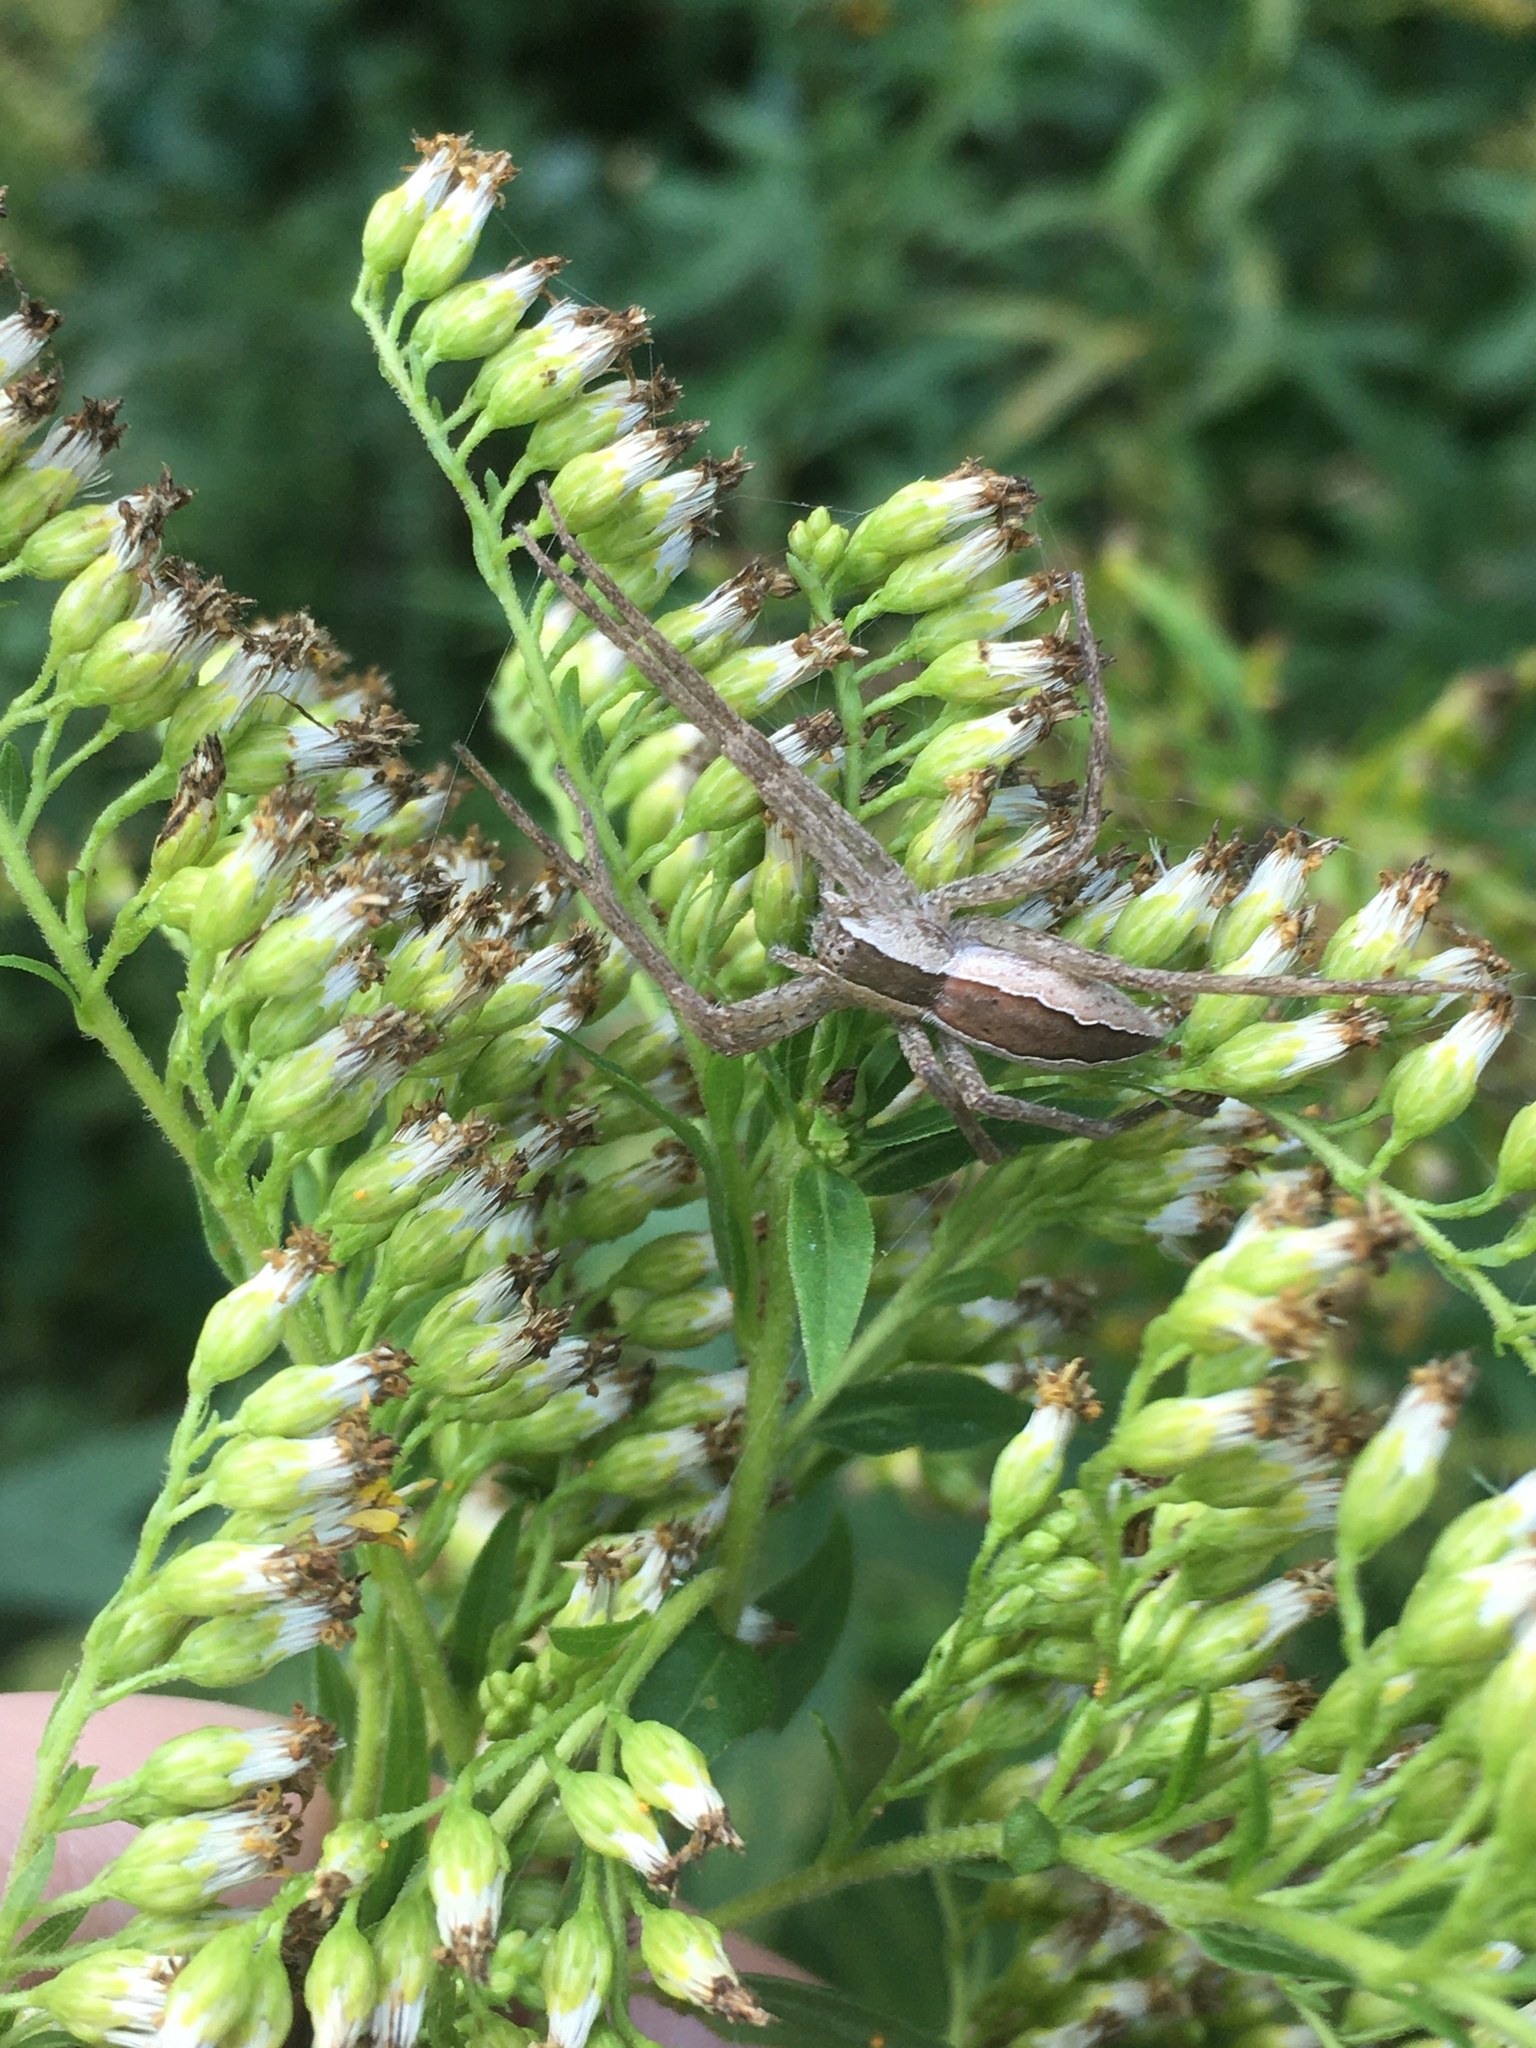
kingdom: Animalia
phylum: Arthropoda
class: Arachnida
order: Araneae
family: Pisauridae
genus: Pisaurina
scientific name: Pisaurina mira
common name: American nursery web spider
